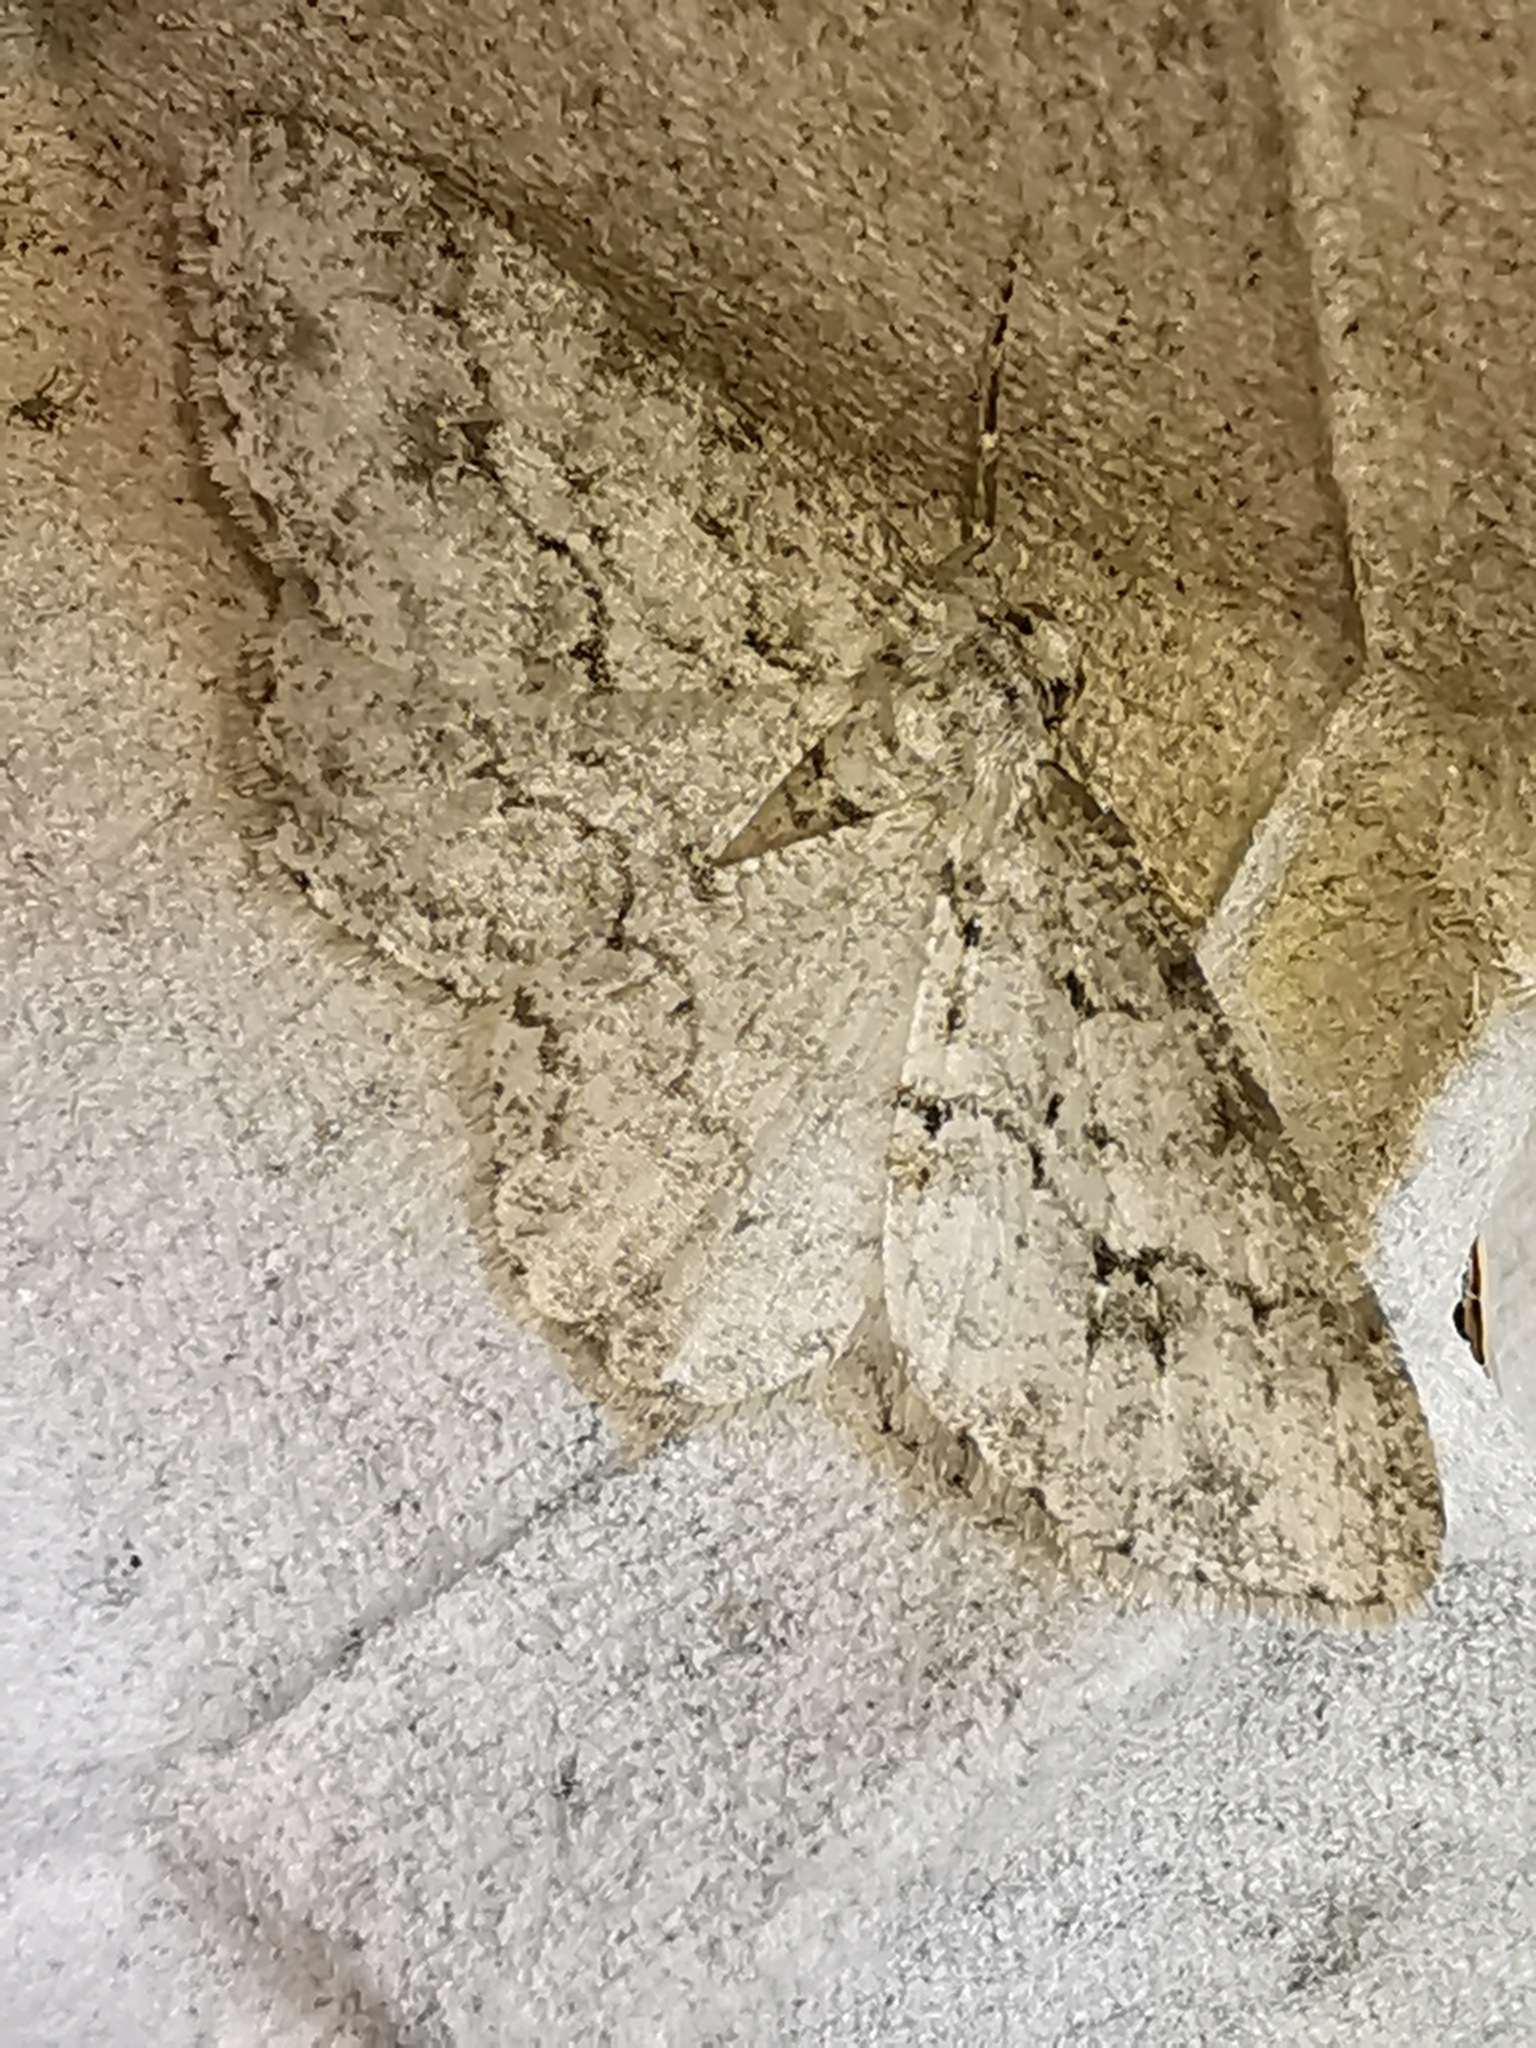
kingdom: Animalia
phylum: Arthropoda
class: Insecta
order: Lepidoptera
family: Geometridae
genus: Ectropis
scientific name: Ectropis crepuscularia
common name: Engrailed
